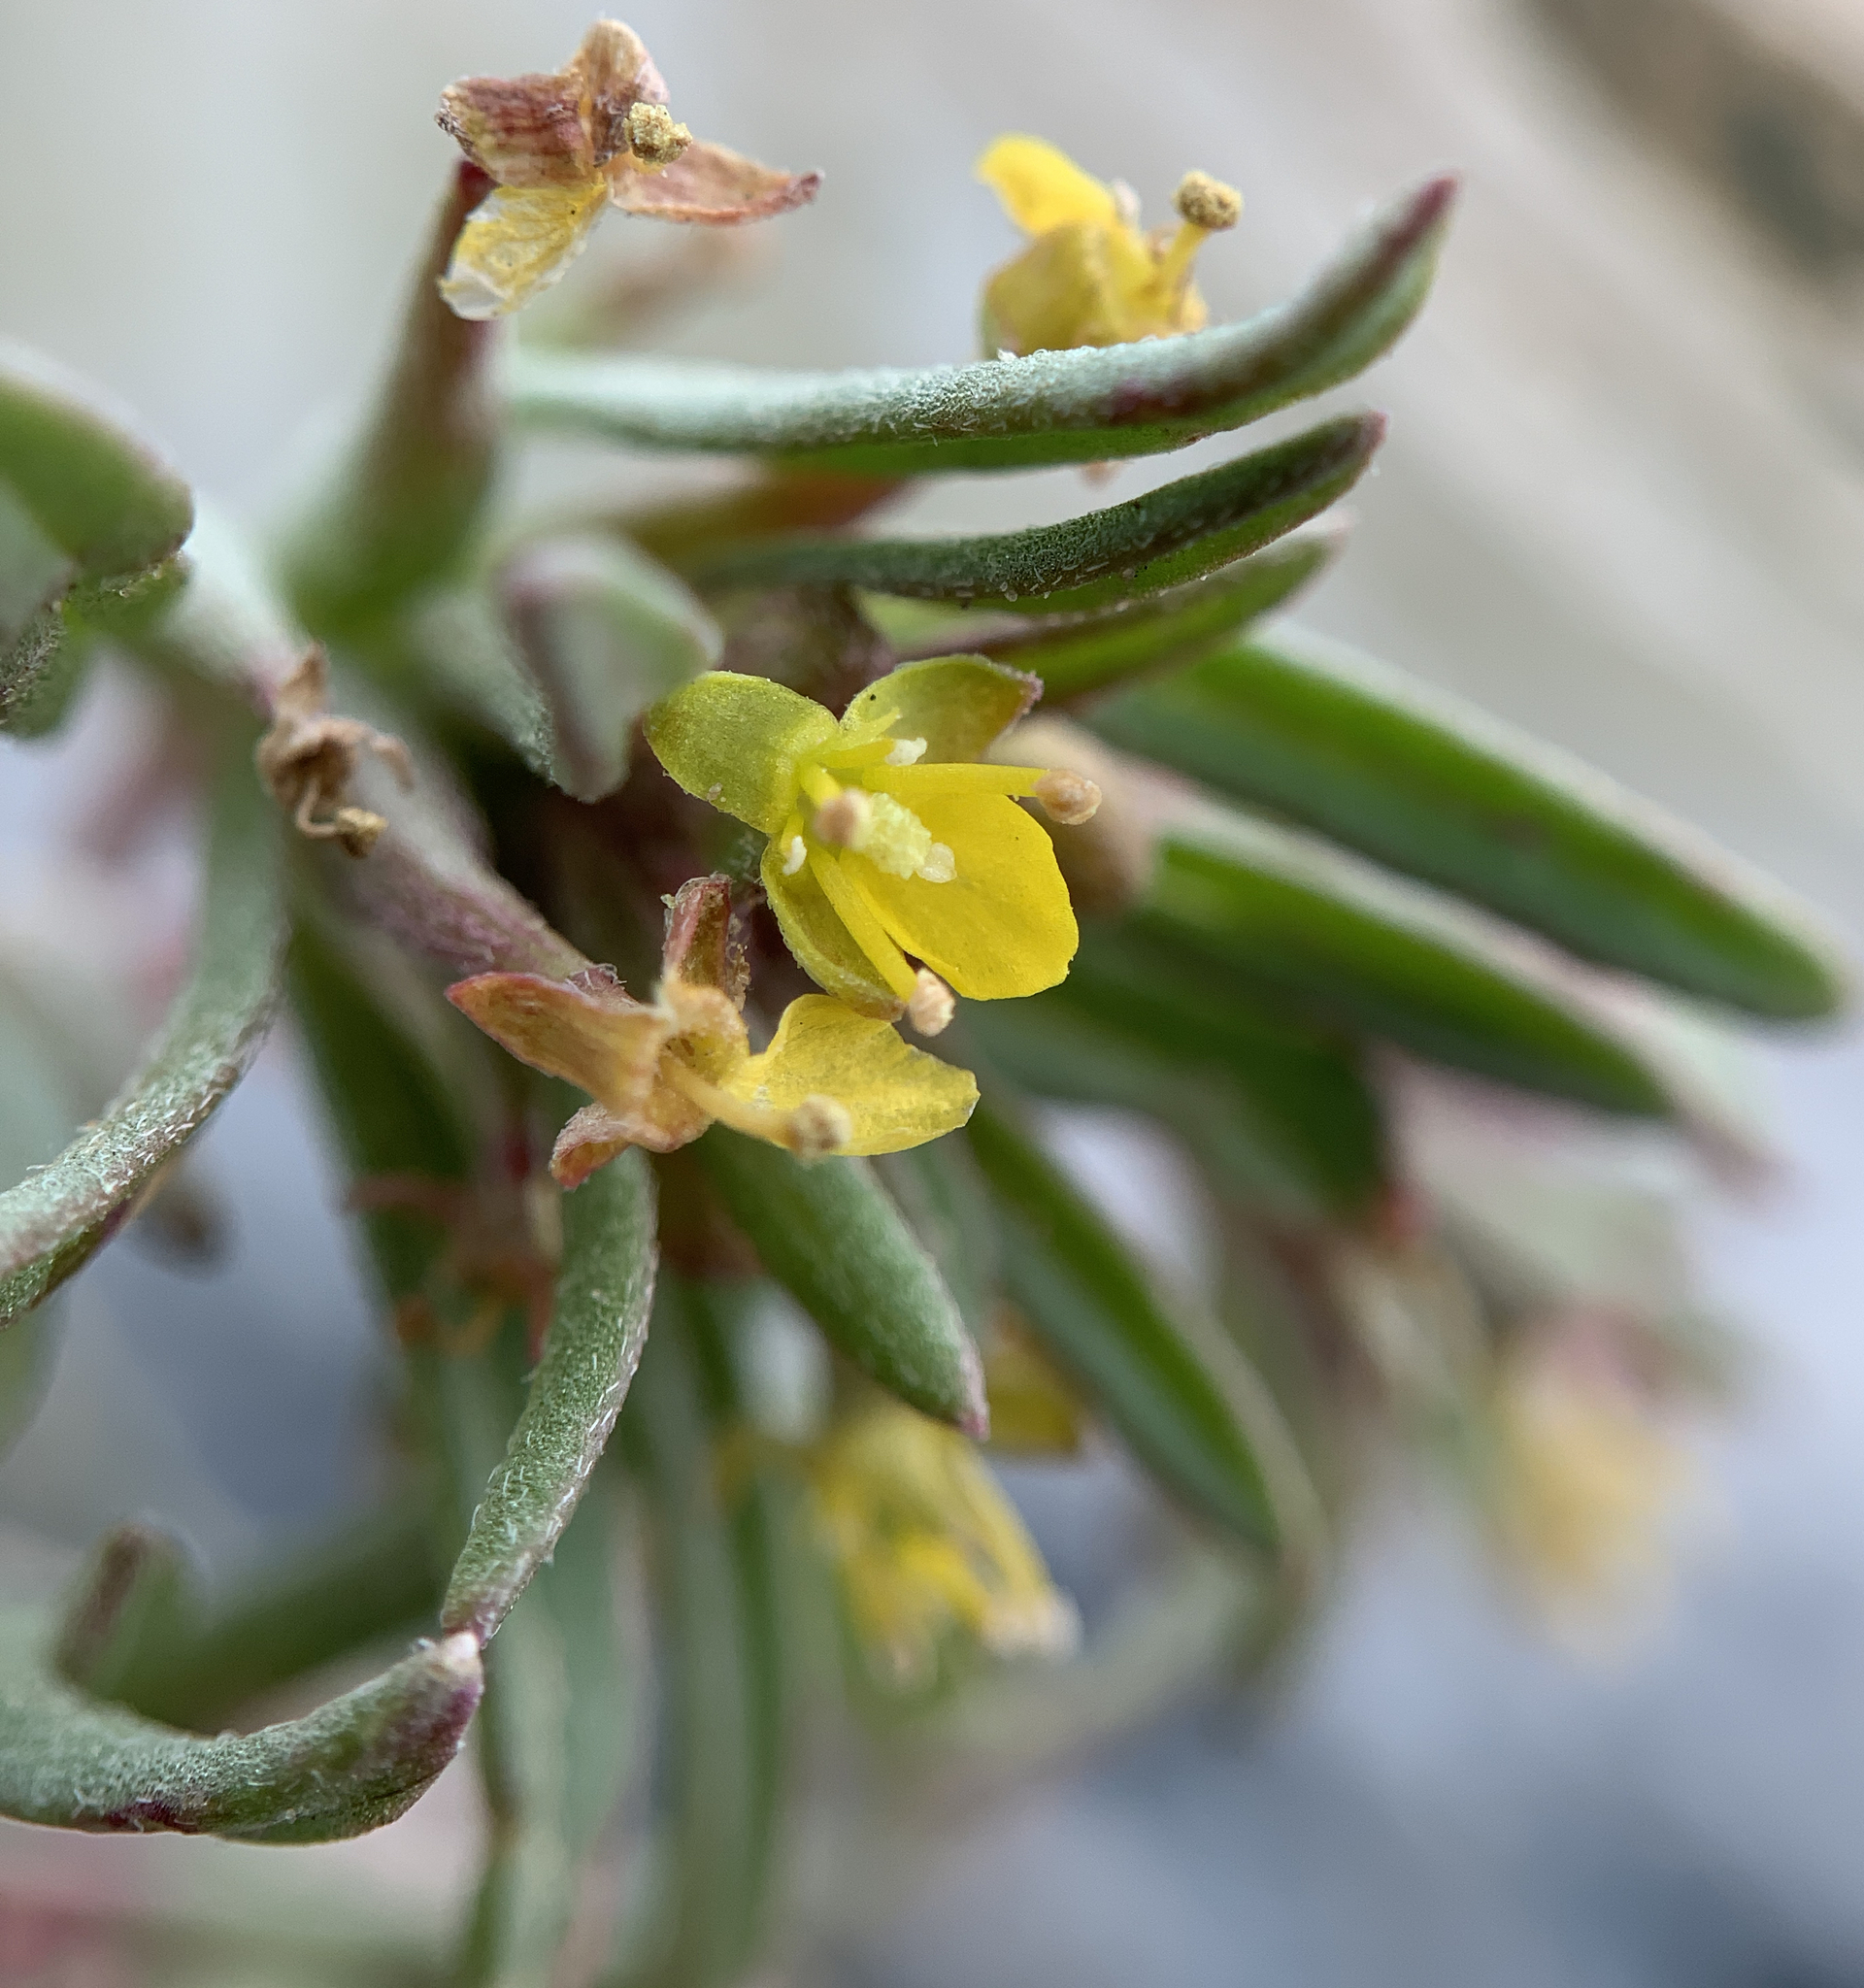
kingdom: Plantae
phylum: Tracheophyta
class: Magnoliopsida
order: Myrtales
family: Onagraceae
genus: Neoholmgrenia
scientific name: Neoholmgrenia andina
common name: Andean evening primrose
